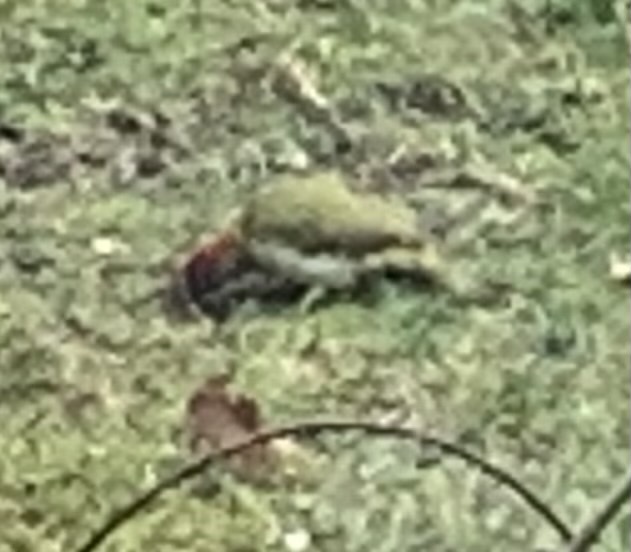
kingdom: Animalia
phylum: Chordata
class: Aves
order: Piciformes
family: Picidae
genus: Picus
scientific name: Picus viridis
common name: European green woodpecker
